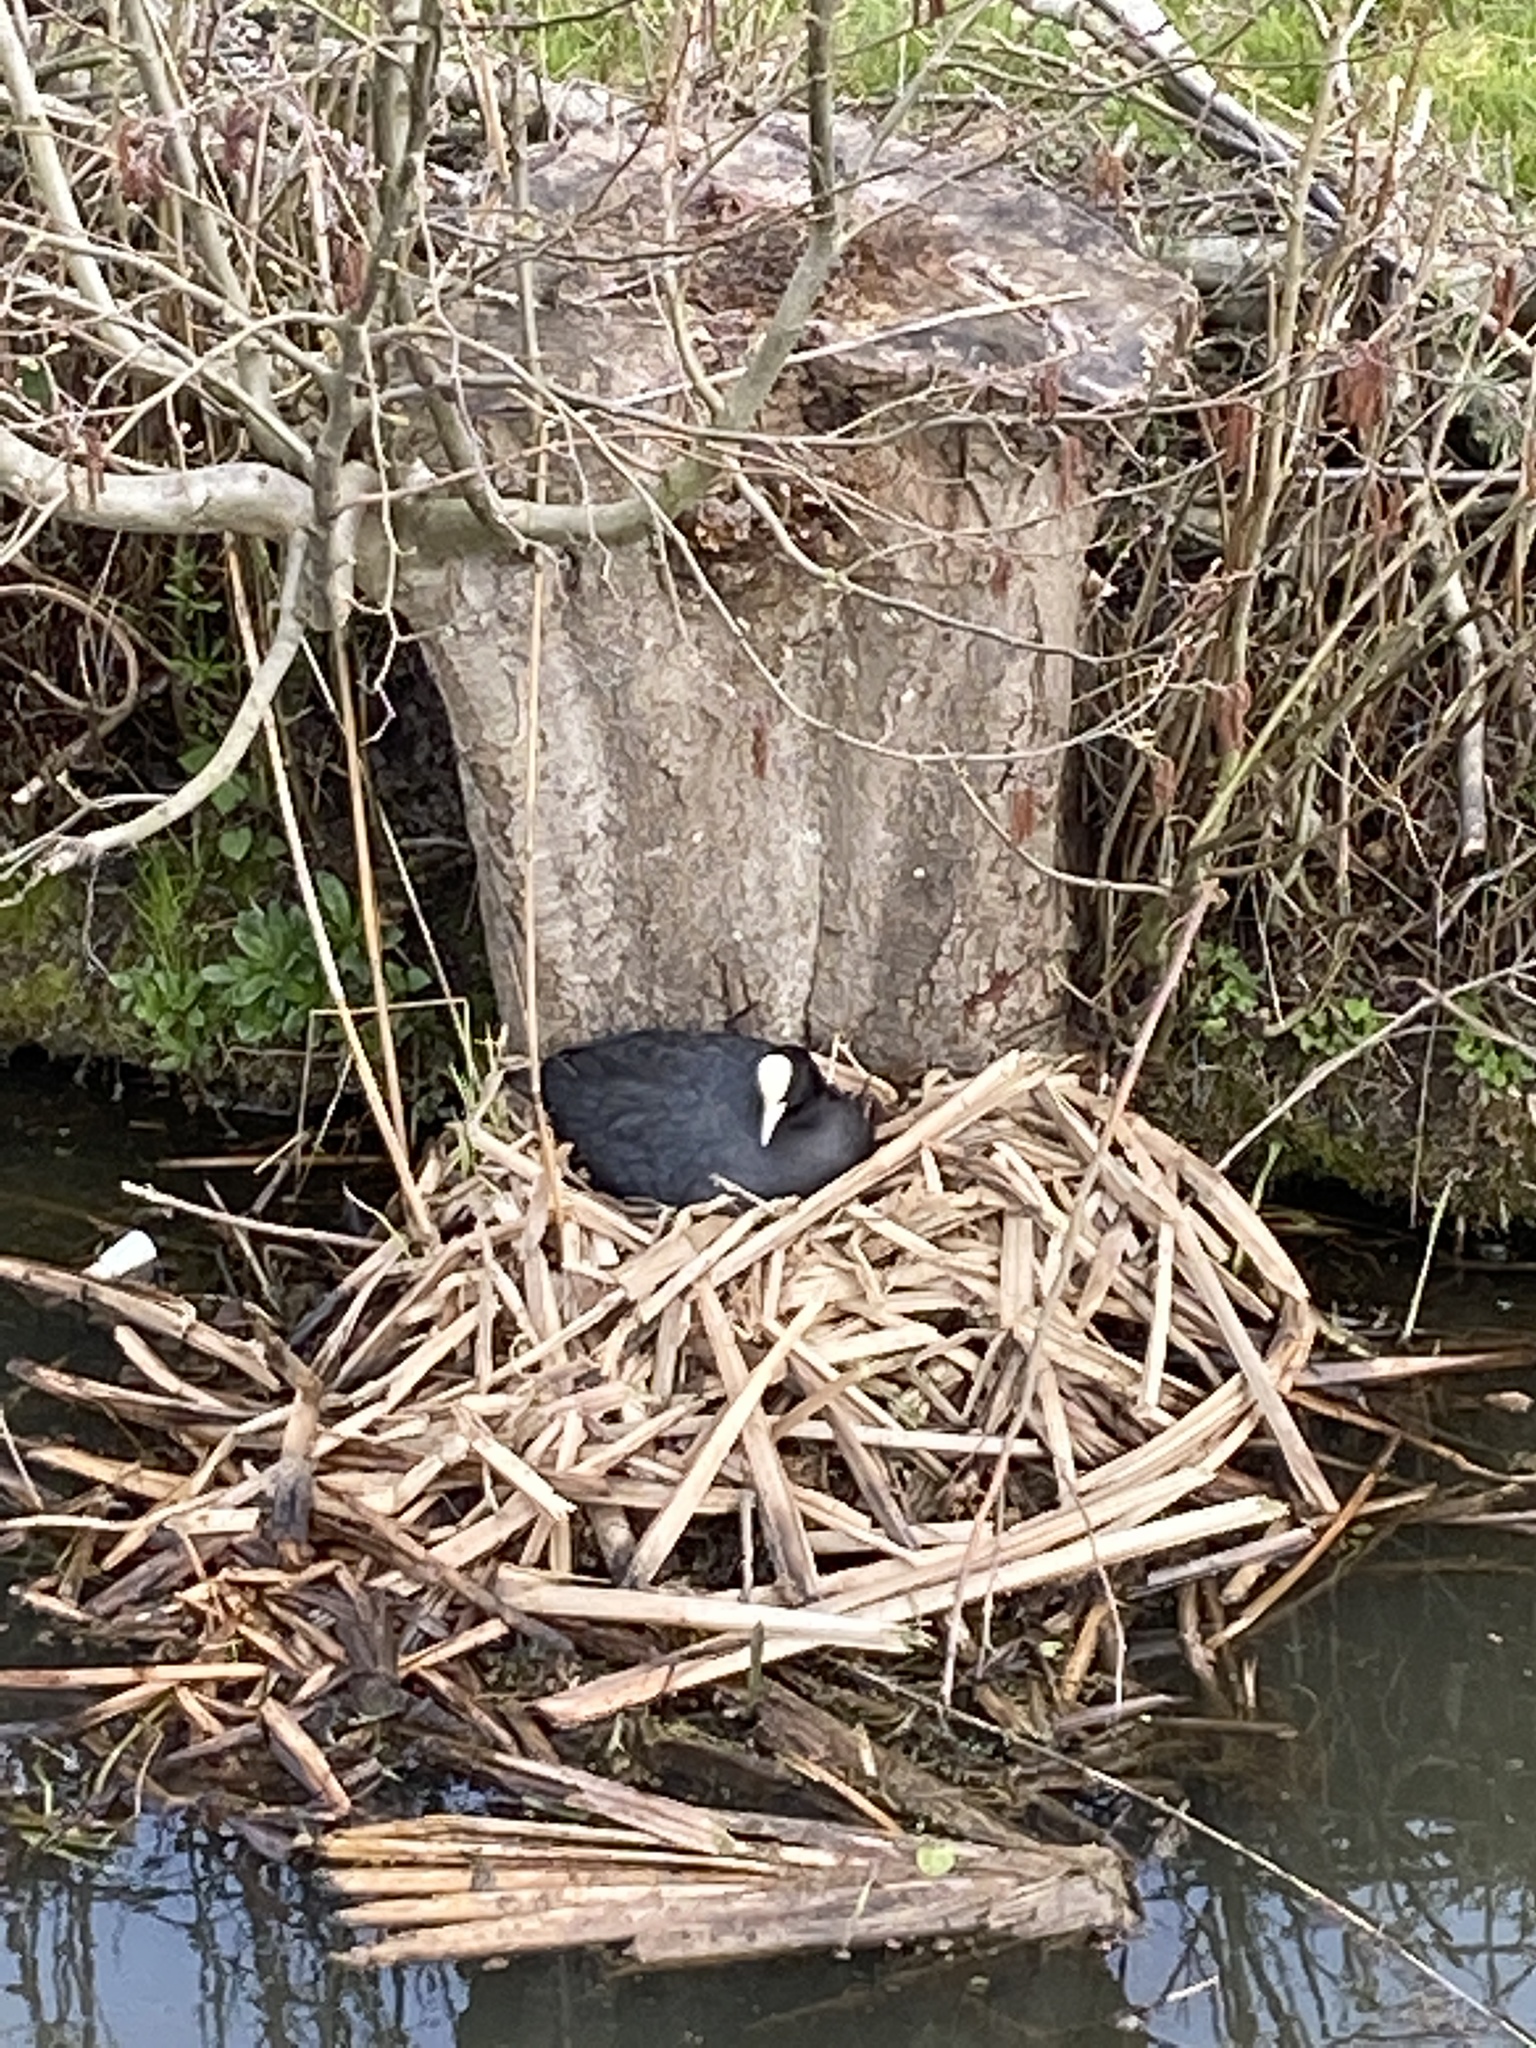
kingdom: Animalia
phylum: Chordata
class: Aves
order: Gruiformes
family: Rallidae
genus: Fulica
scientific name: Fulica atra
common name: Eurasian coot
